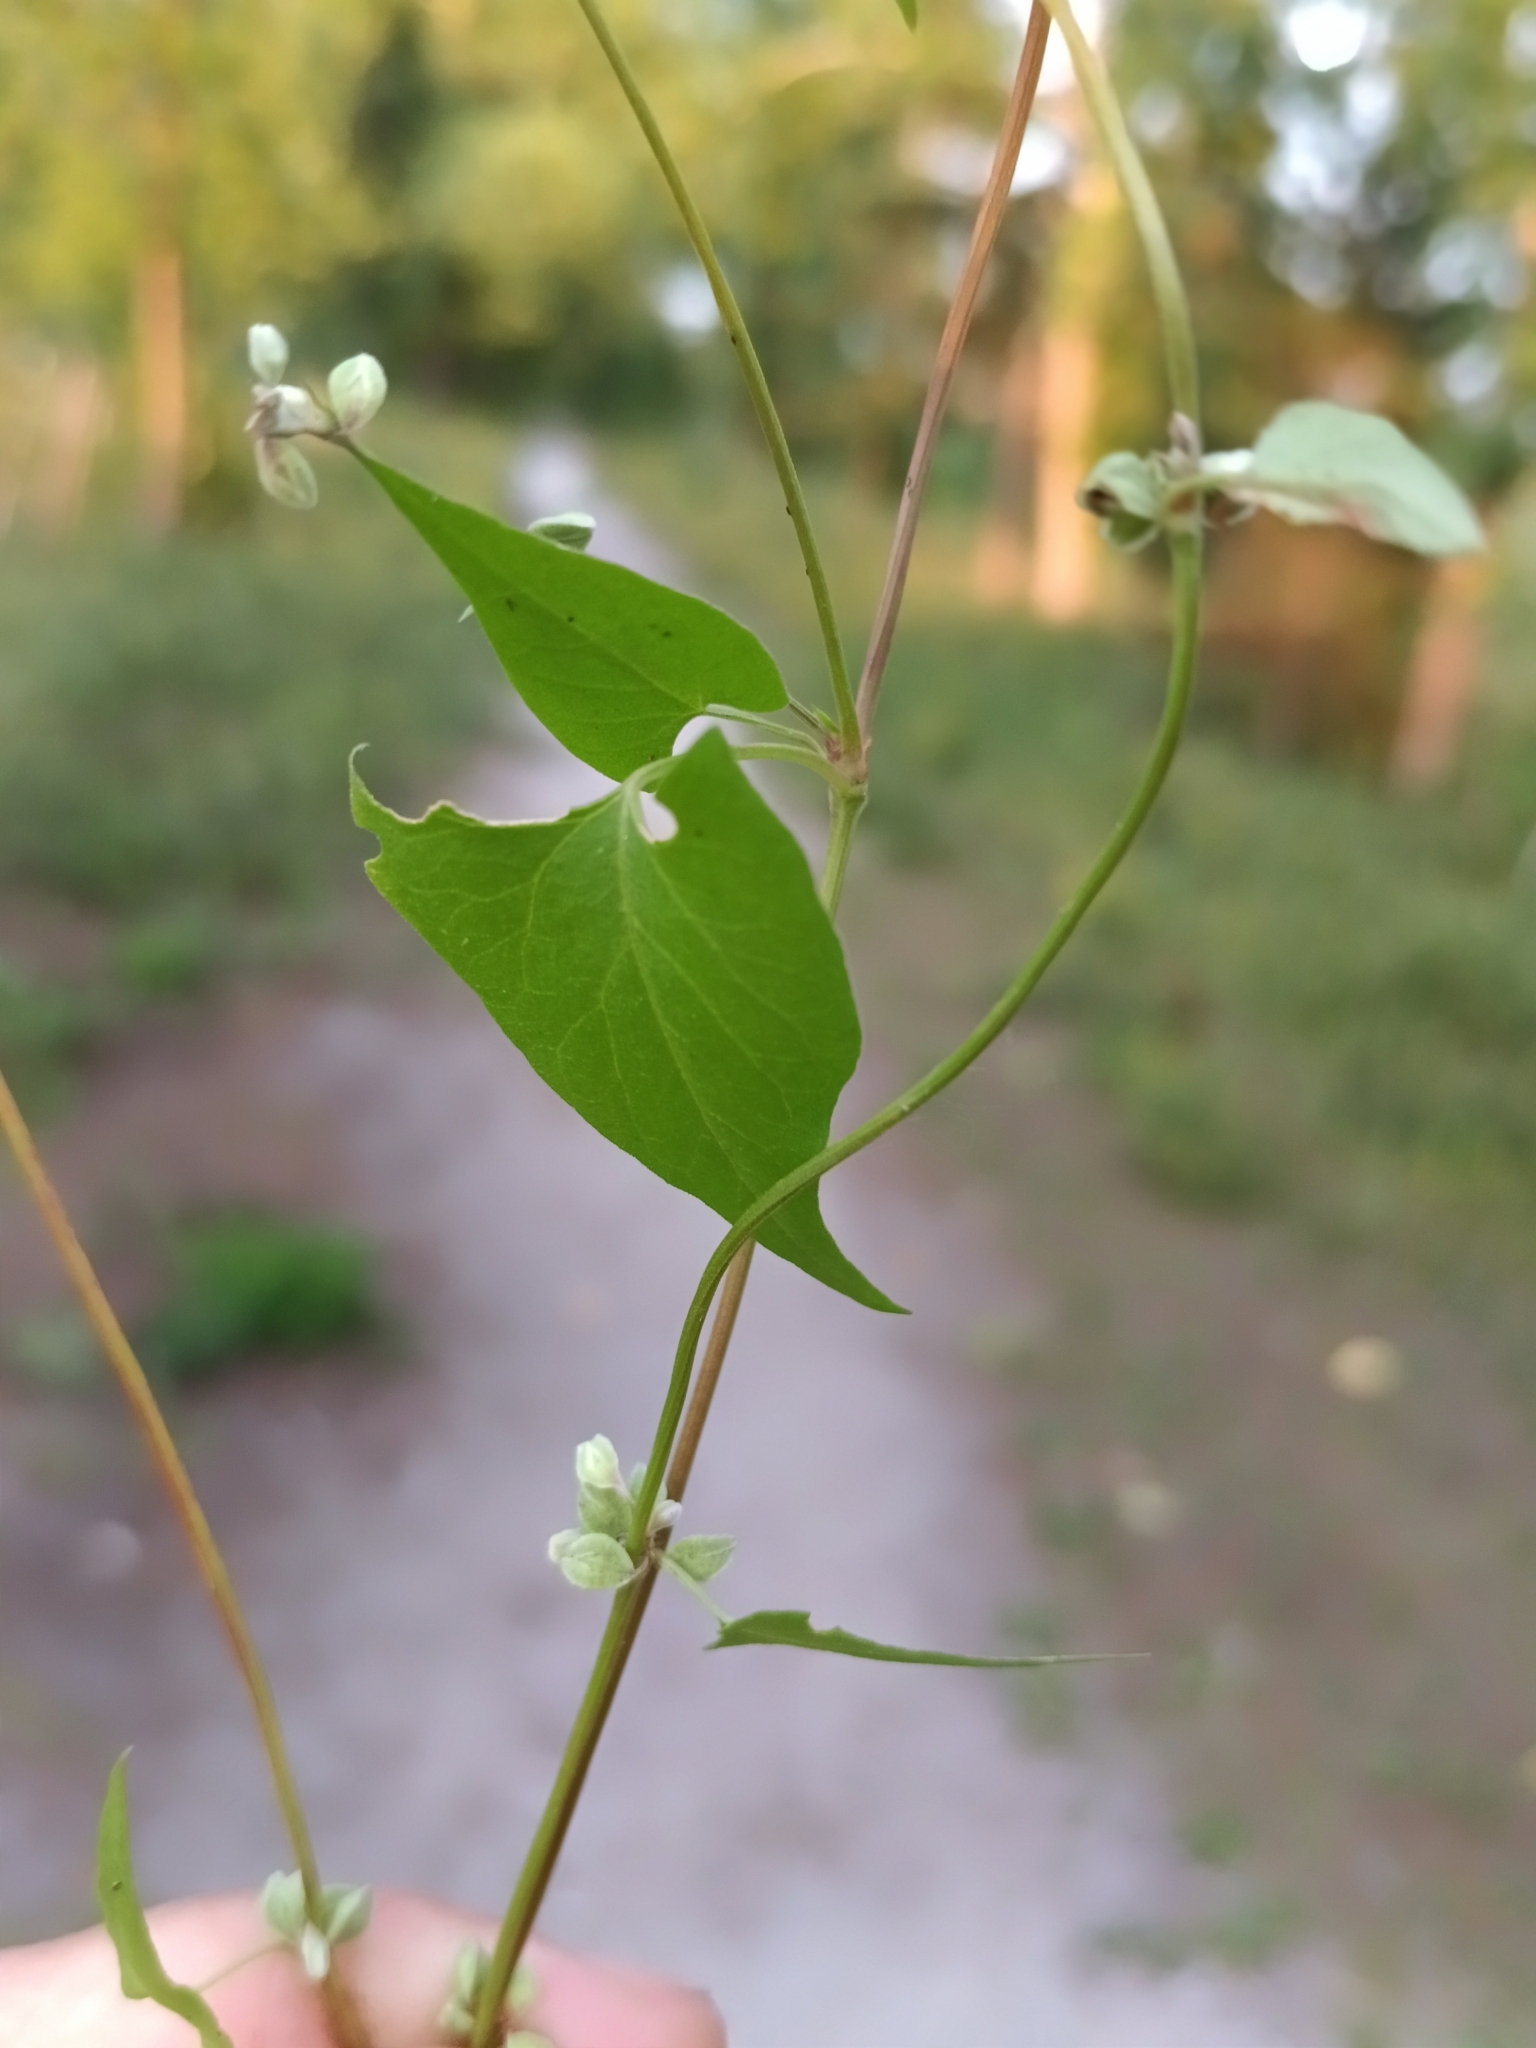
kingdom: Plantae
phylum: Tracheophyta
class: Magnoliopsida
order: Caryophyllales
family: Polygonaceae
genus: Fallopia
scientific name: Fallopia convolvulus
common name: Black bindweed
